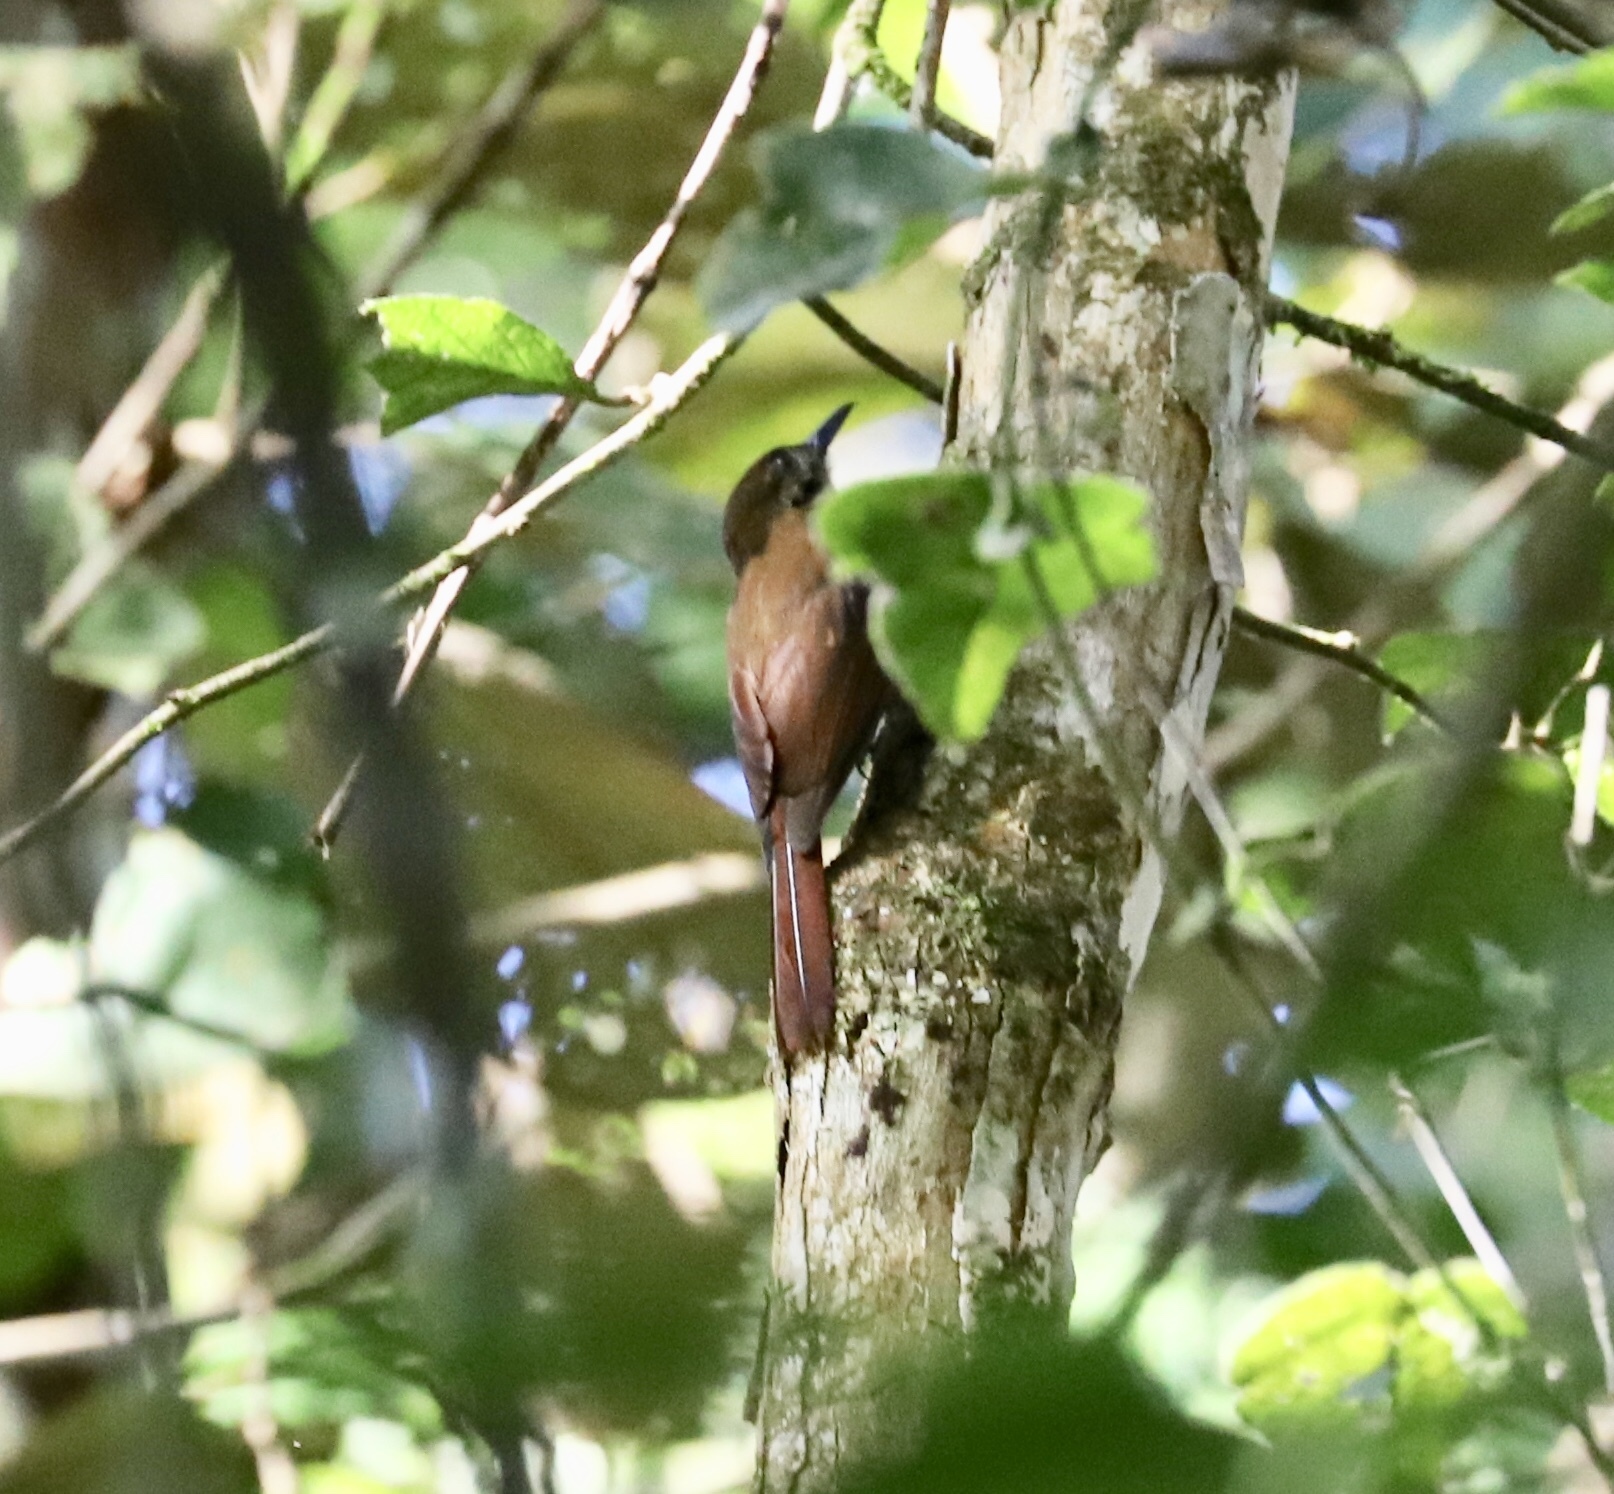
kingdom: Animalia
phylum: Chordata
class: Aves
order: Passeriformes
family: Furnariidae
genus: Dendrocincla
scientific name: Dendrocincla fuliginosa
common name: Plain-brown woodcreeper
